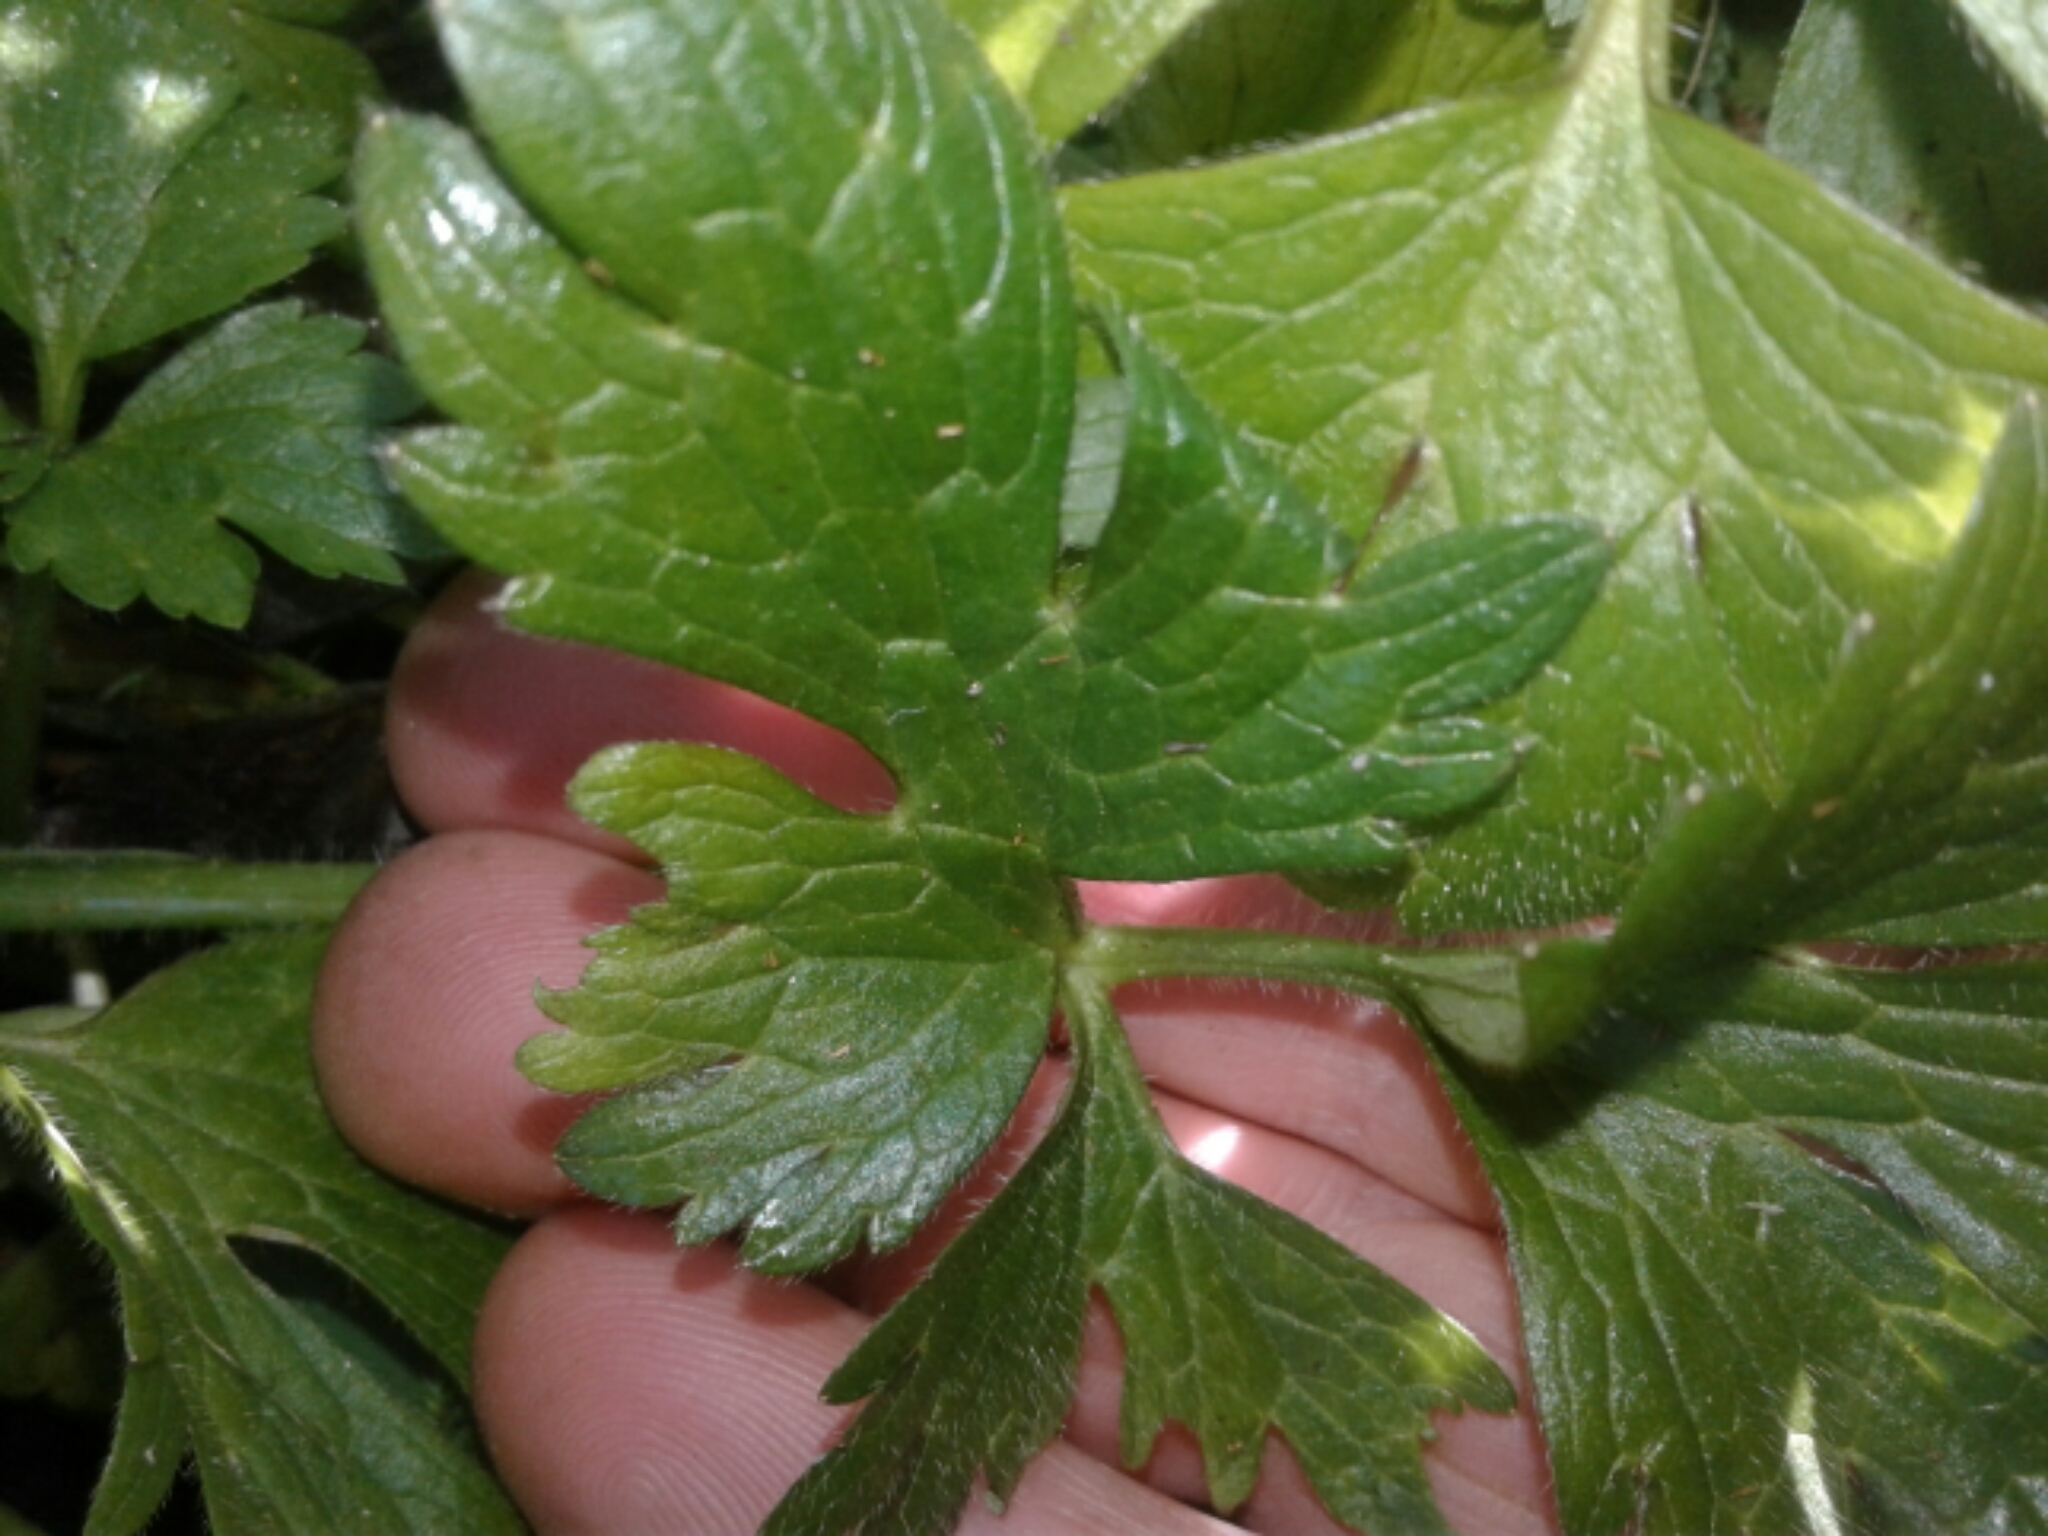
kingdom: Plantae
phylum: Tracheophyta
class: Magnoliopsida
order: Ranunculales
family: Ranunculaceae
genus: Ranunculus
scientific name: Ranunculus repens
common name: Creeping buttercup
